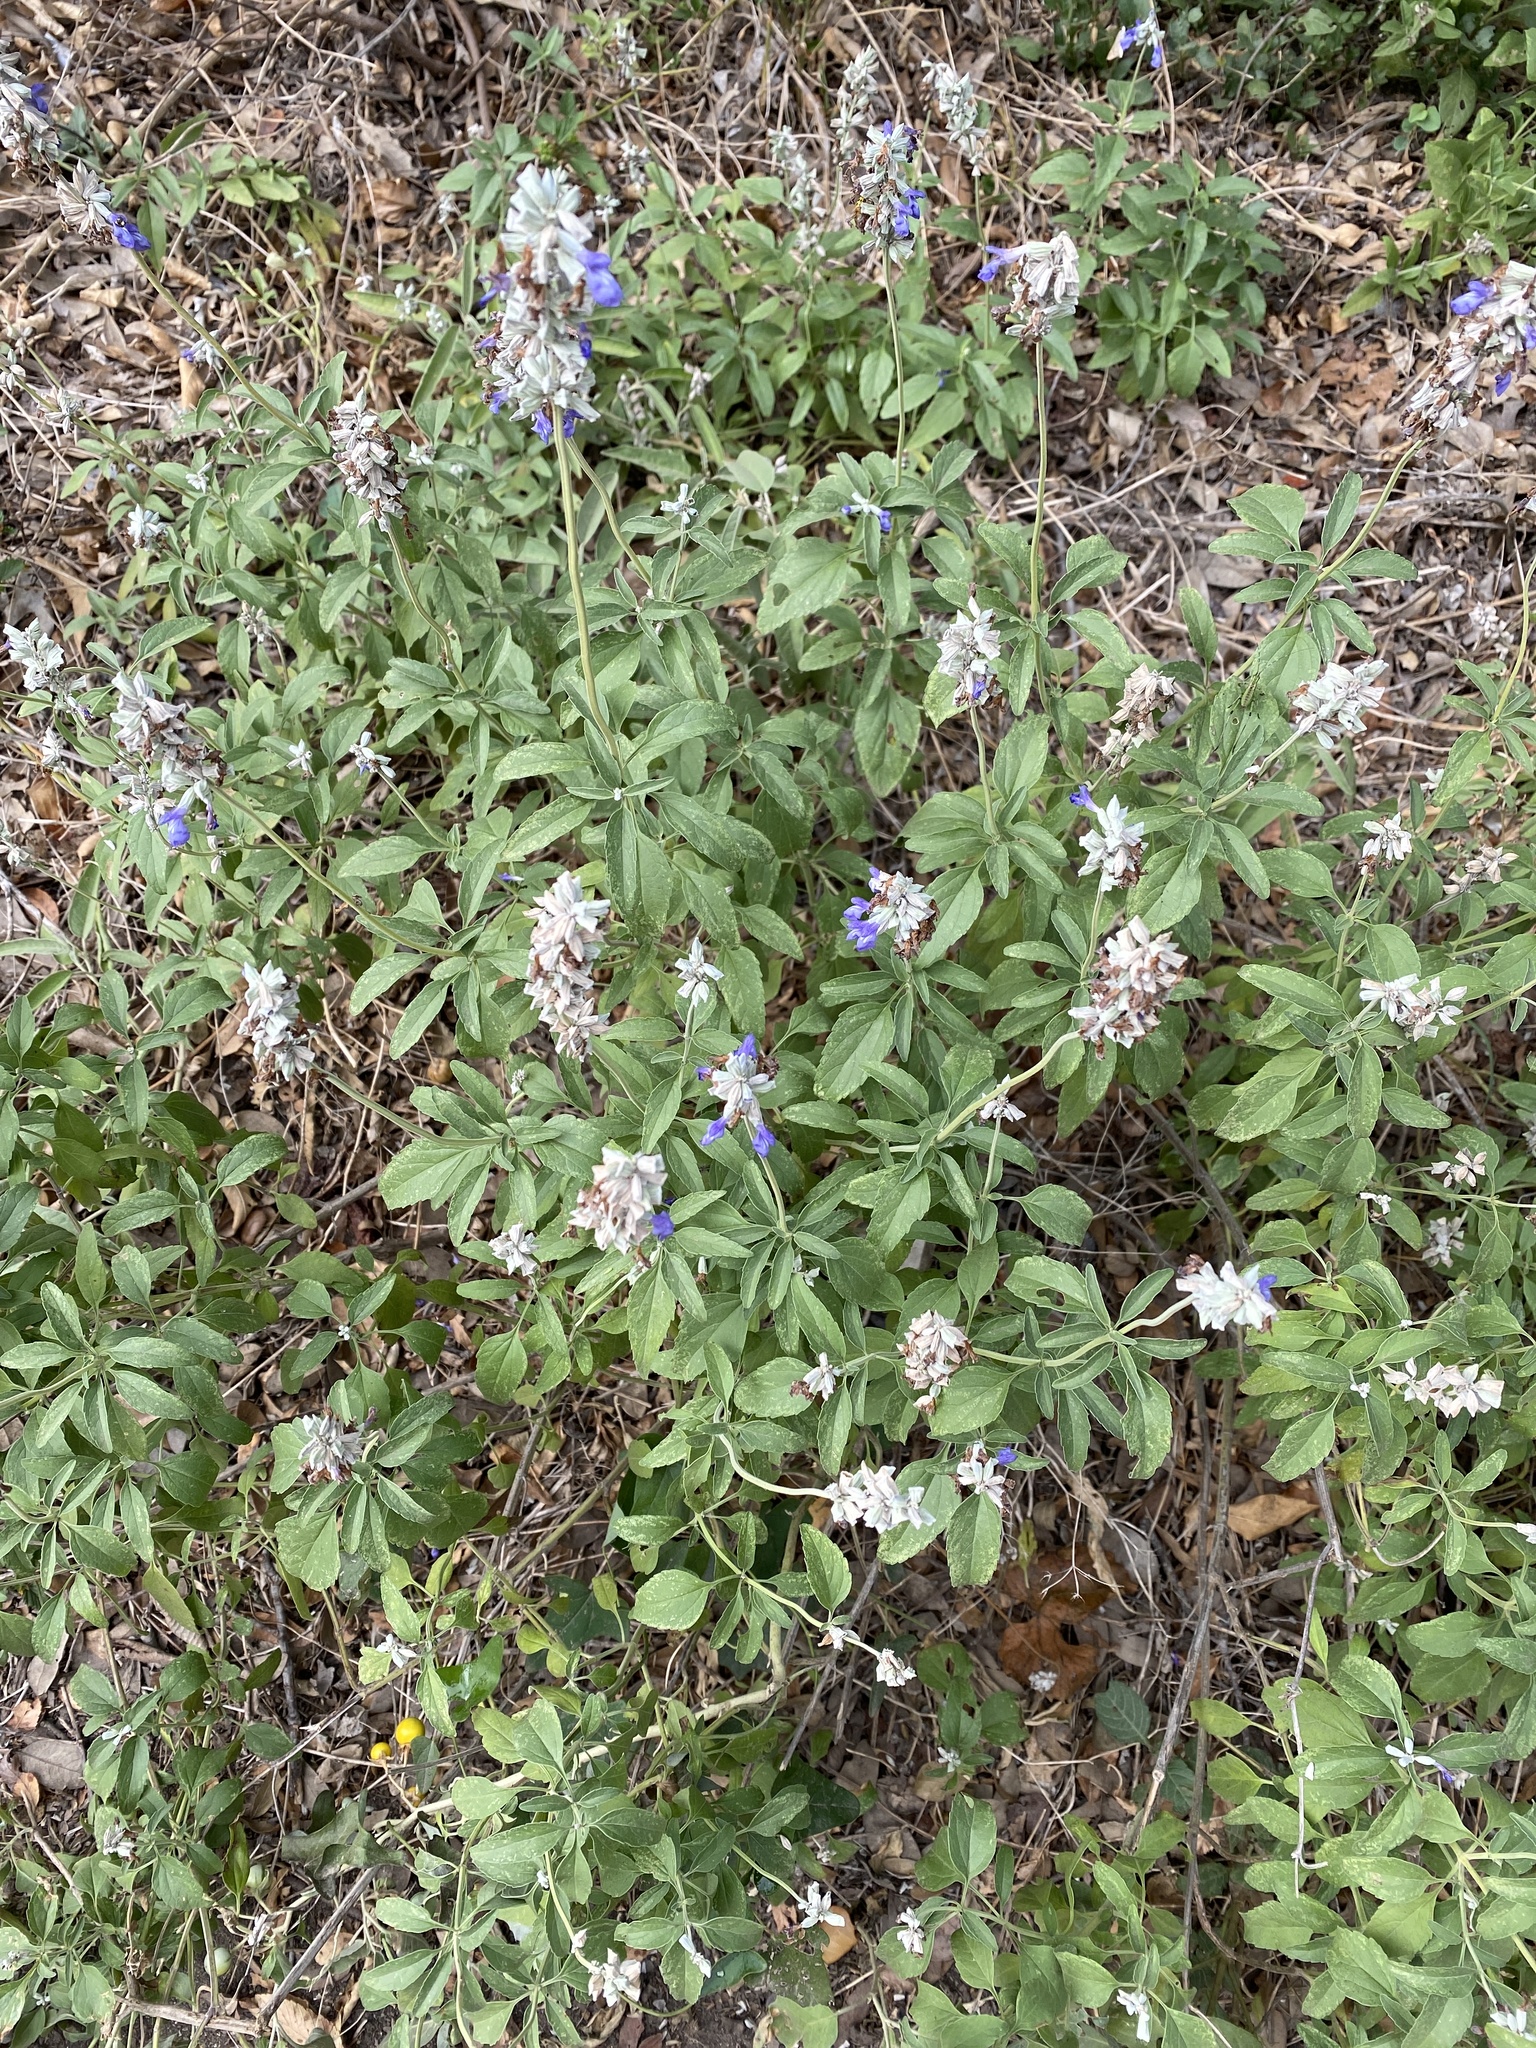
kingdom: Plantae
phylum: Tracheophyta
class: Magnoliopsida
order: Lamiales
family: Lamiaceae
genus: Salvia
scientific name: Salvia farinacea
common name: Mealy sage
